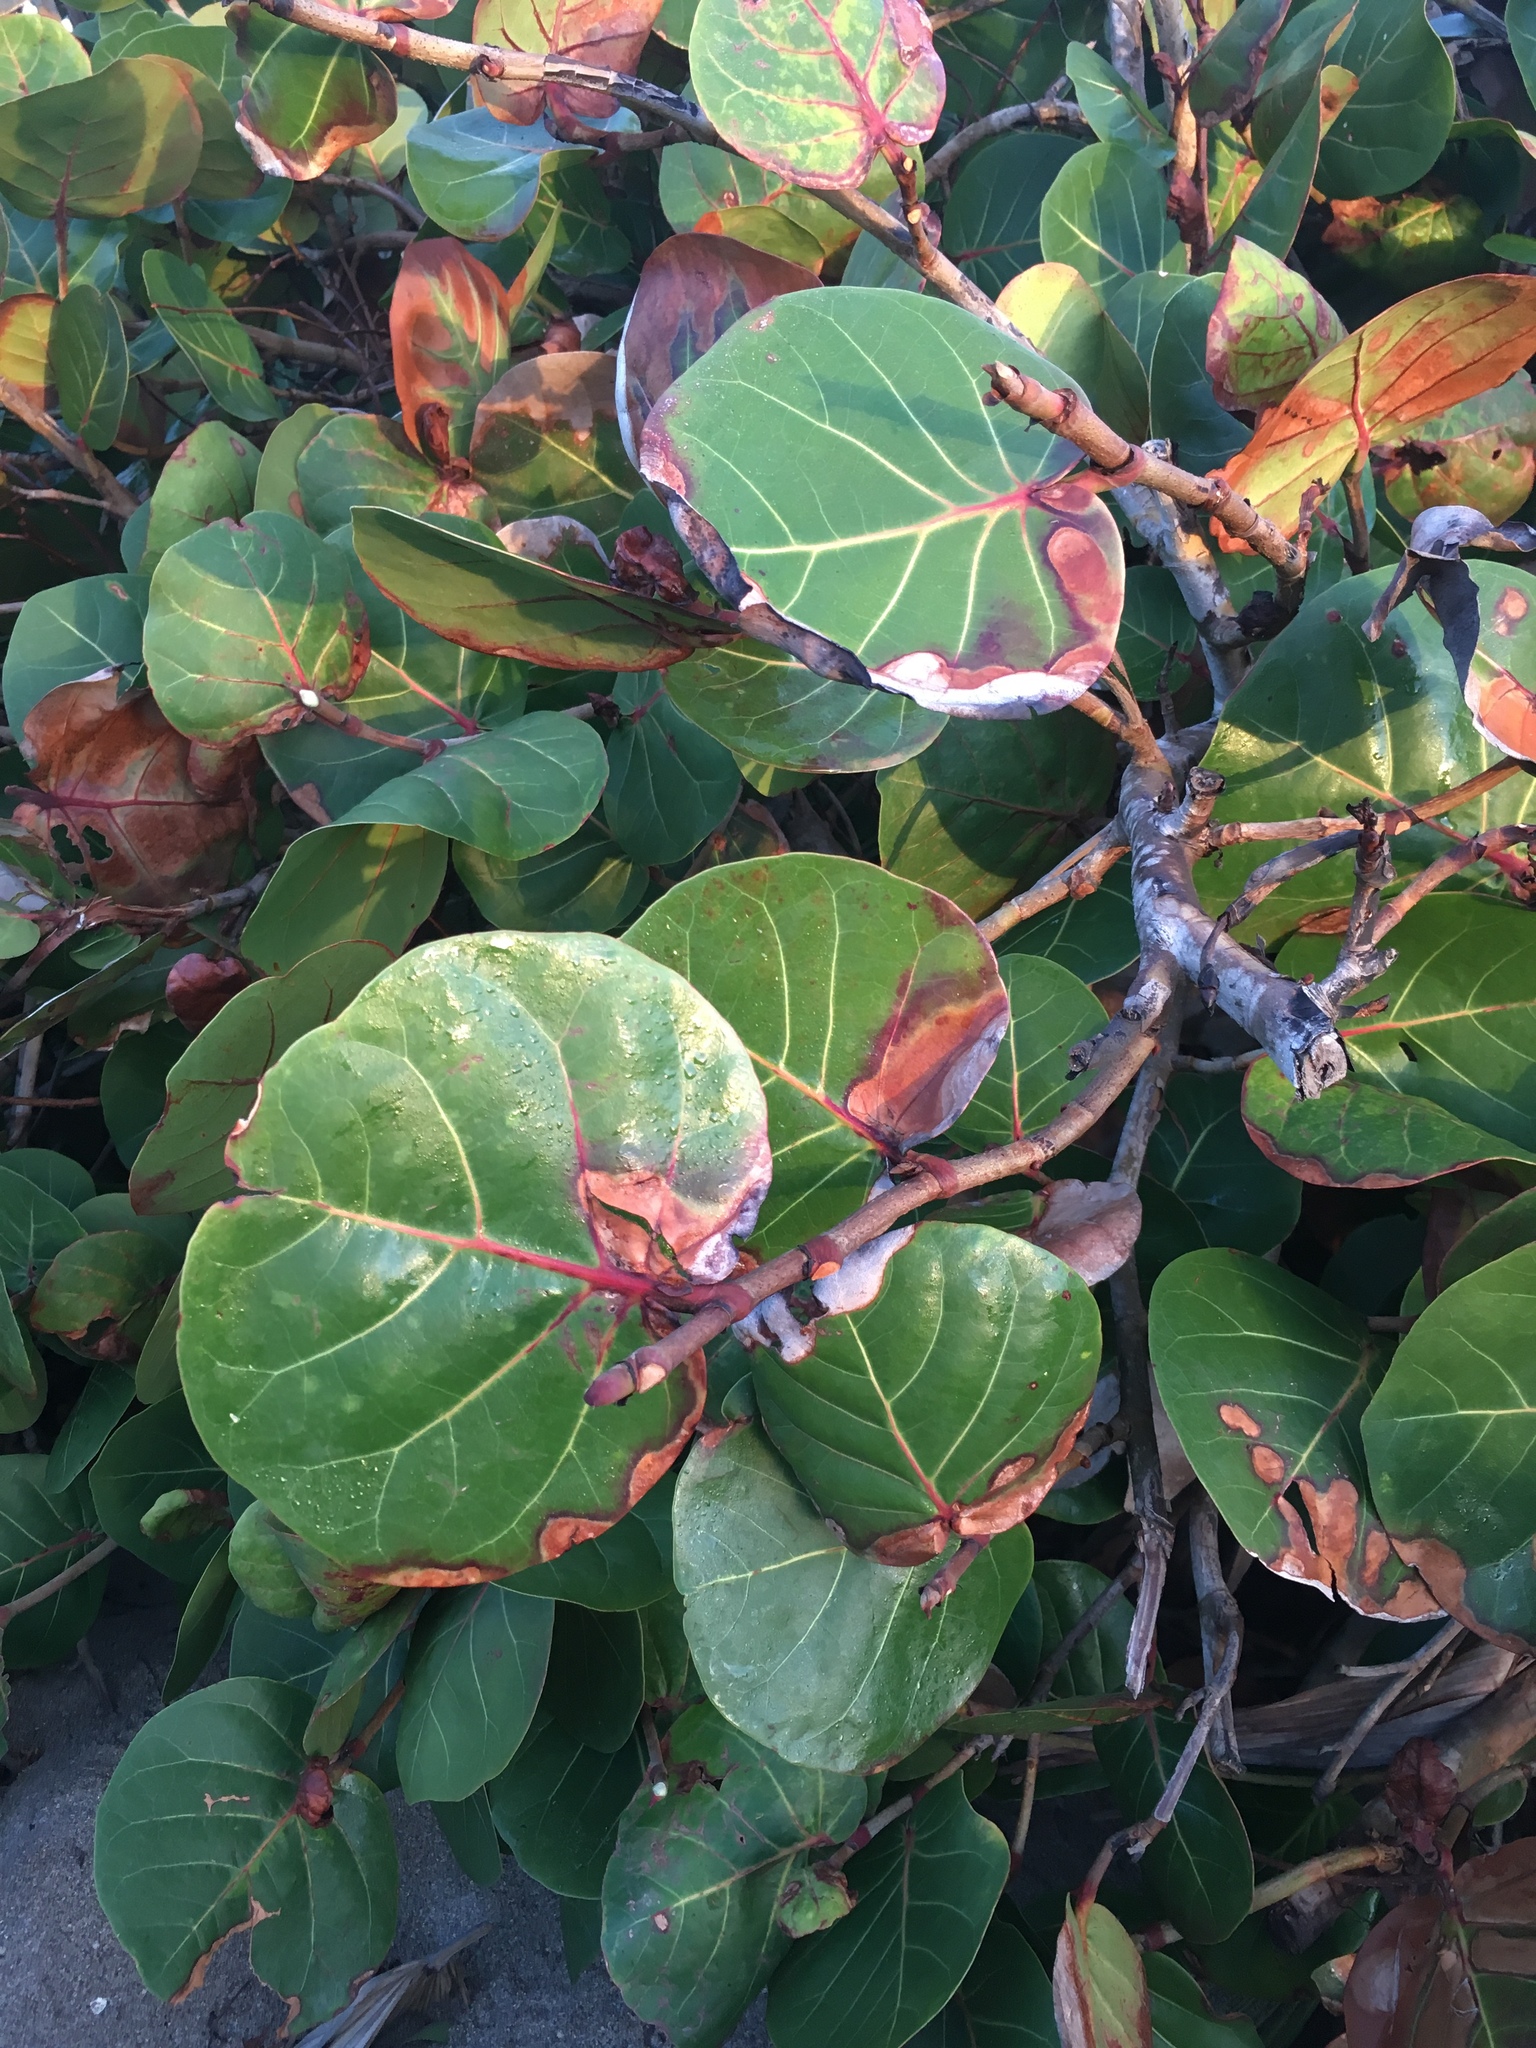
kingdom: Plantae
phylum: Tracheophyta
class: Magnoliopsida
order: Caryophyllales
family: Polygonaceae
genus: Coccoloba
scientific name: Coccoloba uvifera
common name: Seagrape
